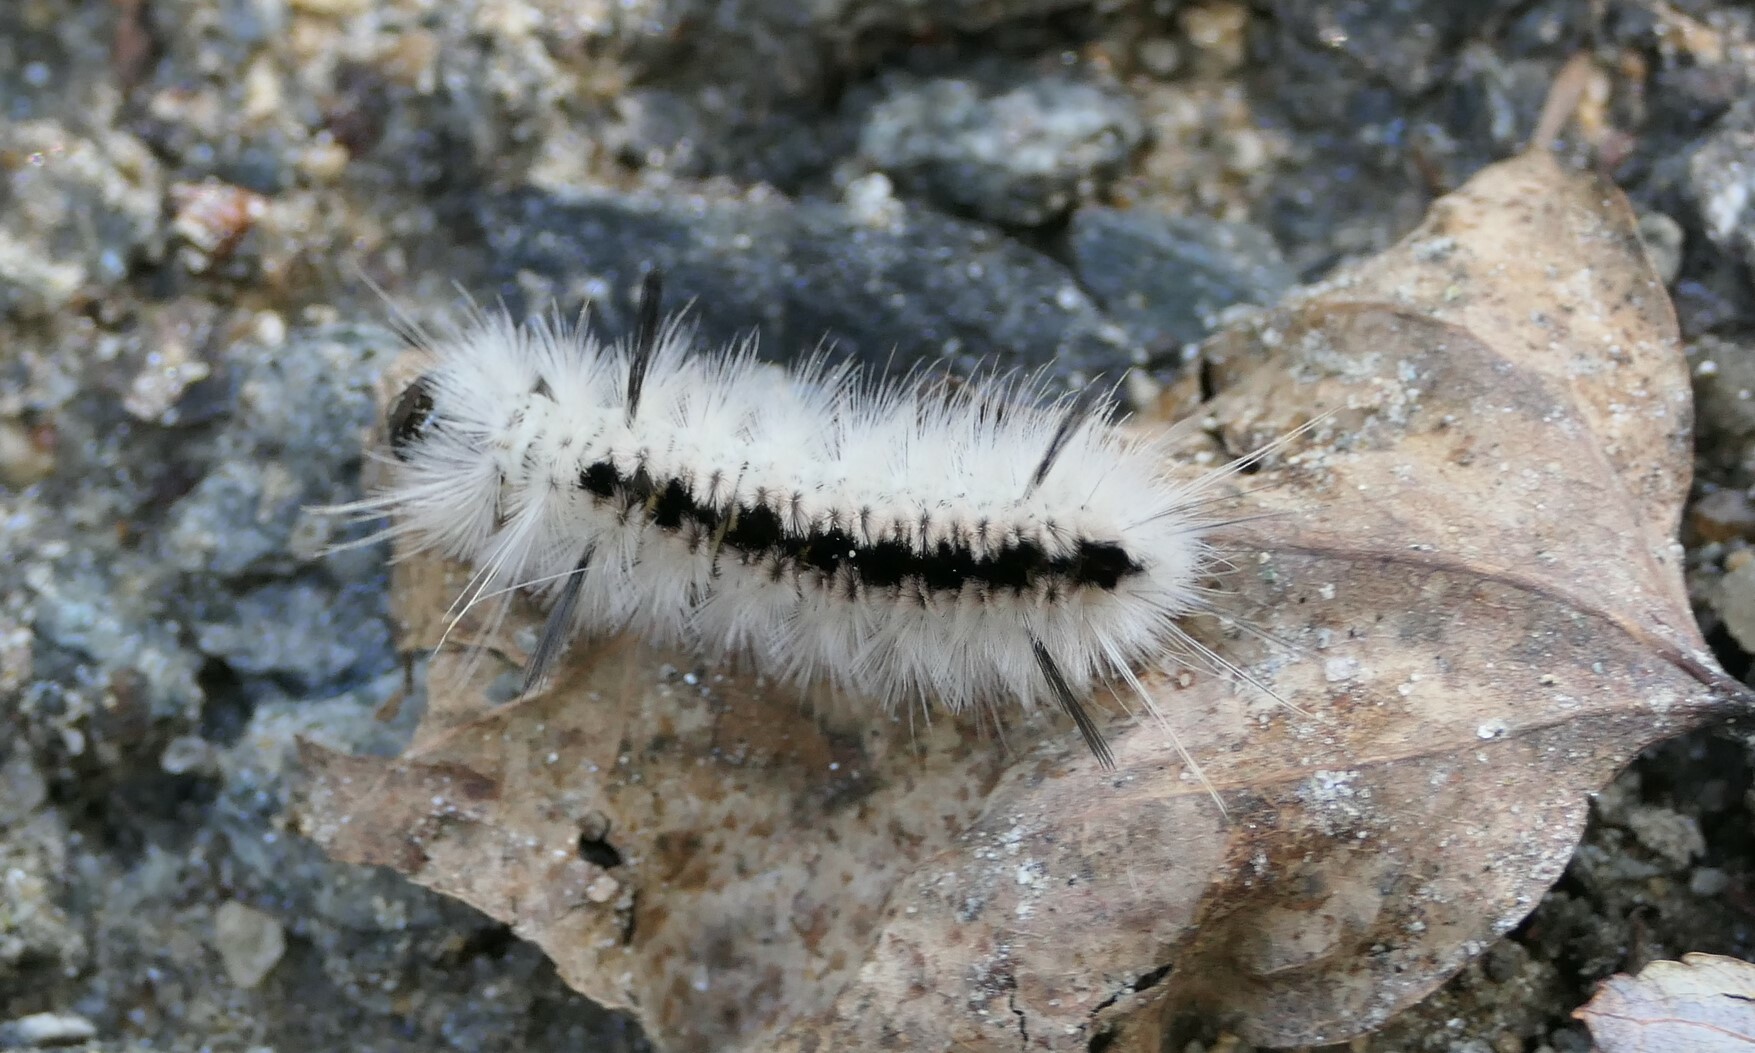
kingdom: Animalia
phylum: Arthropoda
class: Insecta
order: Lepidoptera
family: Erebidae
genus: Lophocampa
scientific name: Lophocampa caryae
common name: Hickory tussock moth
